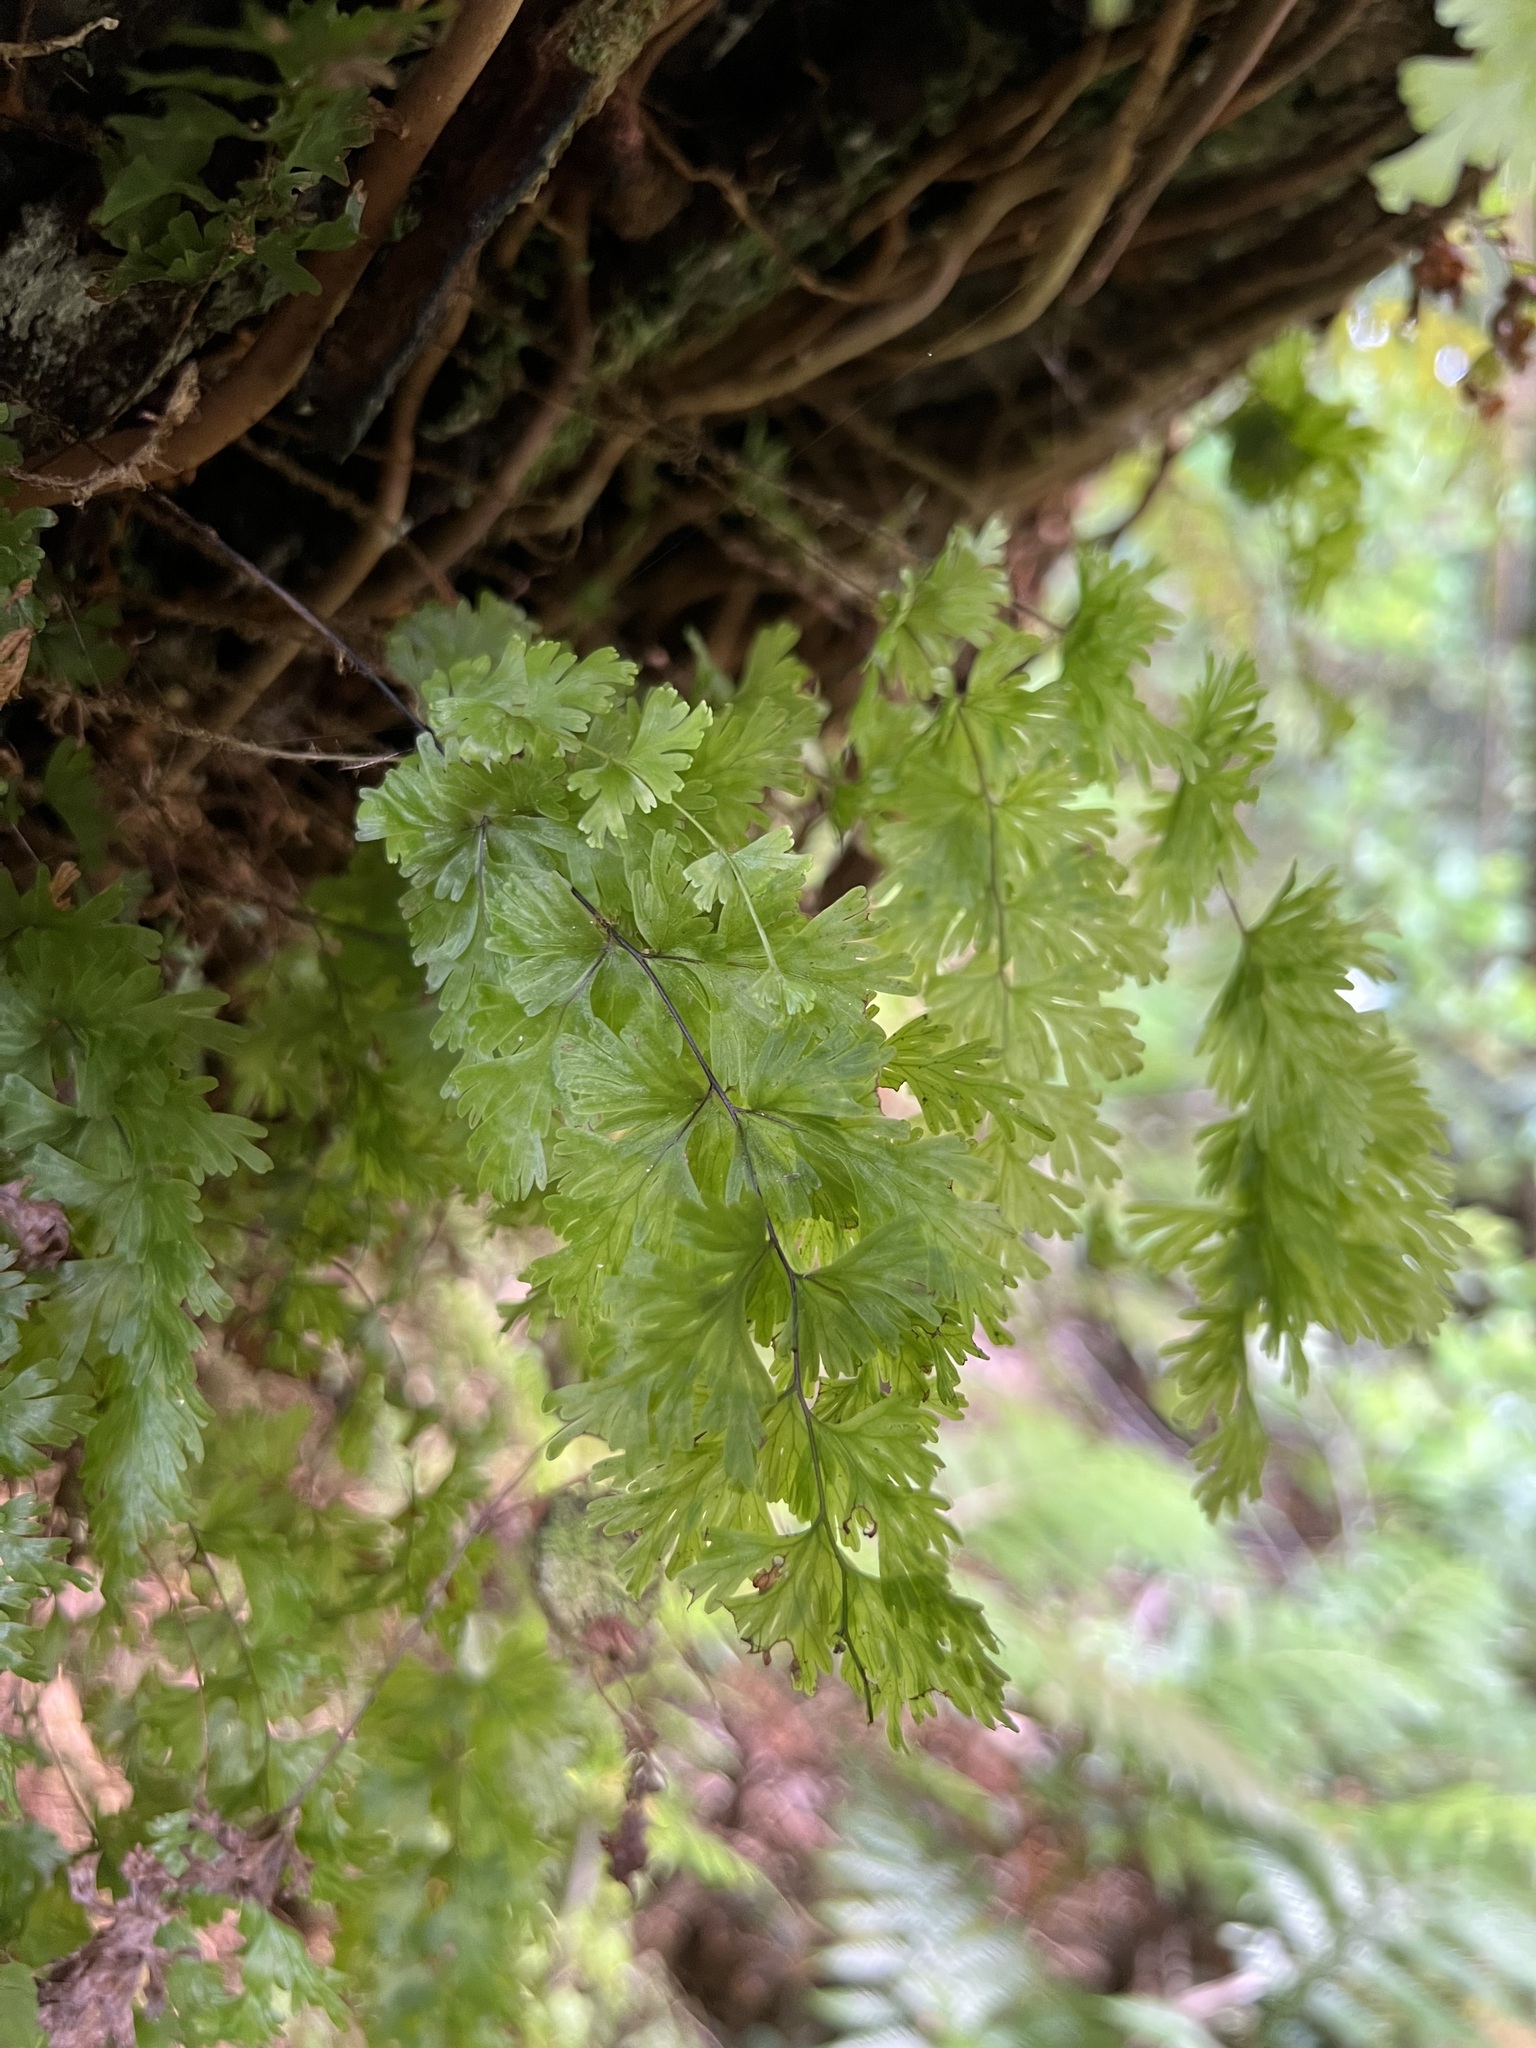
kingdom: Plantae
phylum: Tracheophyta
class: Polypodiopsida
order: Hymenophyllales
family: Hymenophyllaceae
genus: Hymenophyllum
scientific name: Hymenophyllum flabellatum
